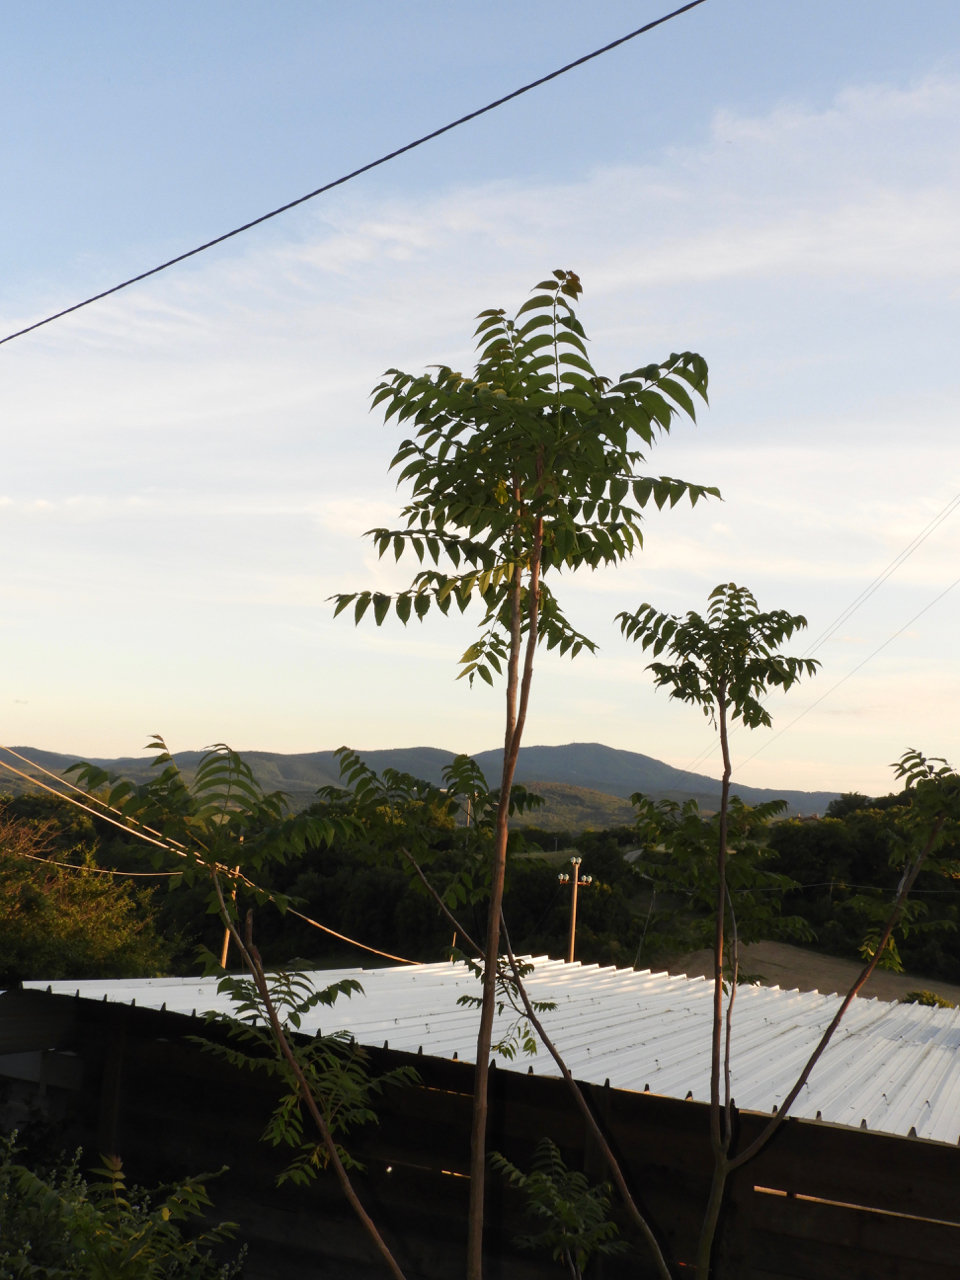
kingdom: Plantae
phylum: Tracheophyta
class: Magnoliopsida
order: Sapindales
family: Simaroubaceae
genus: Ailanthus
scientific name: Ailanthus altissima
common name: Tree-of-heaven
